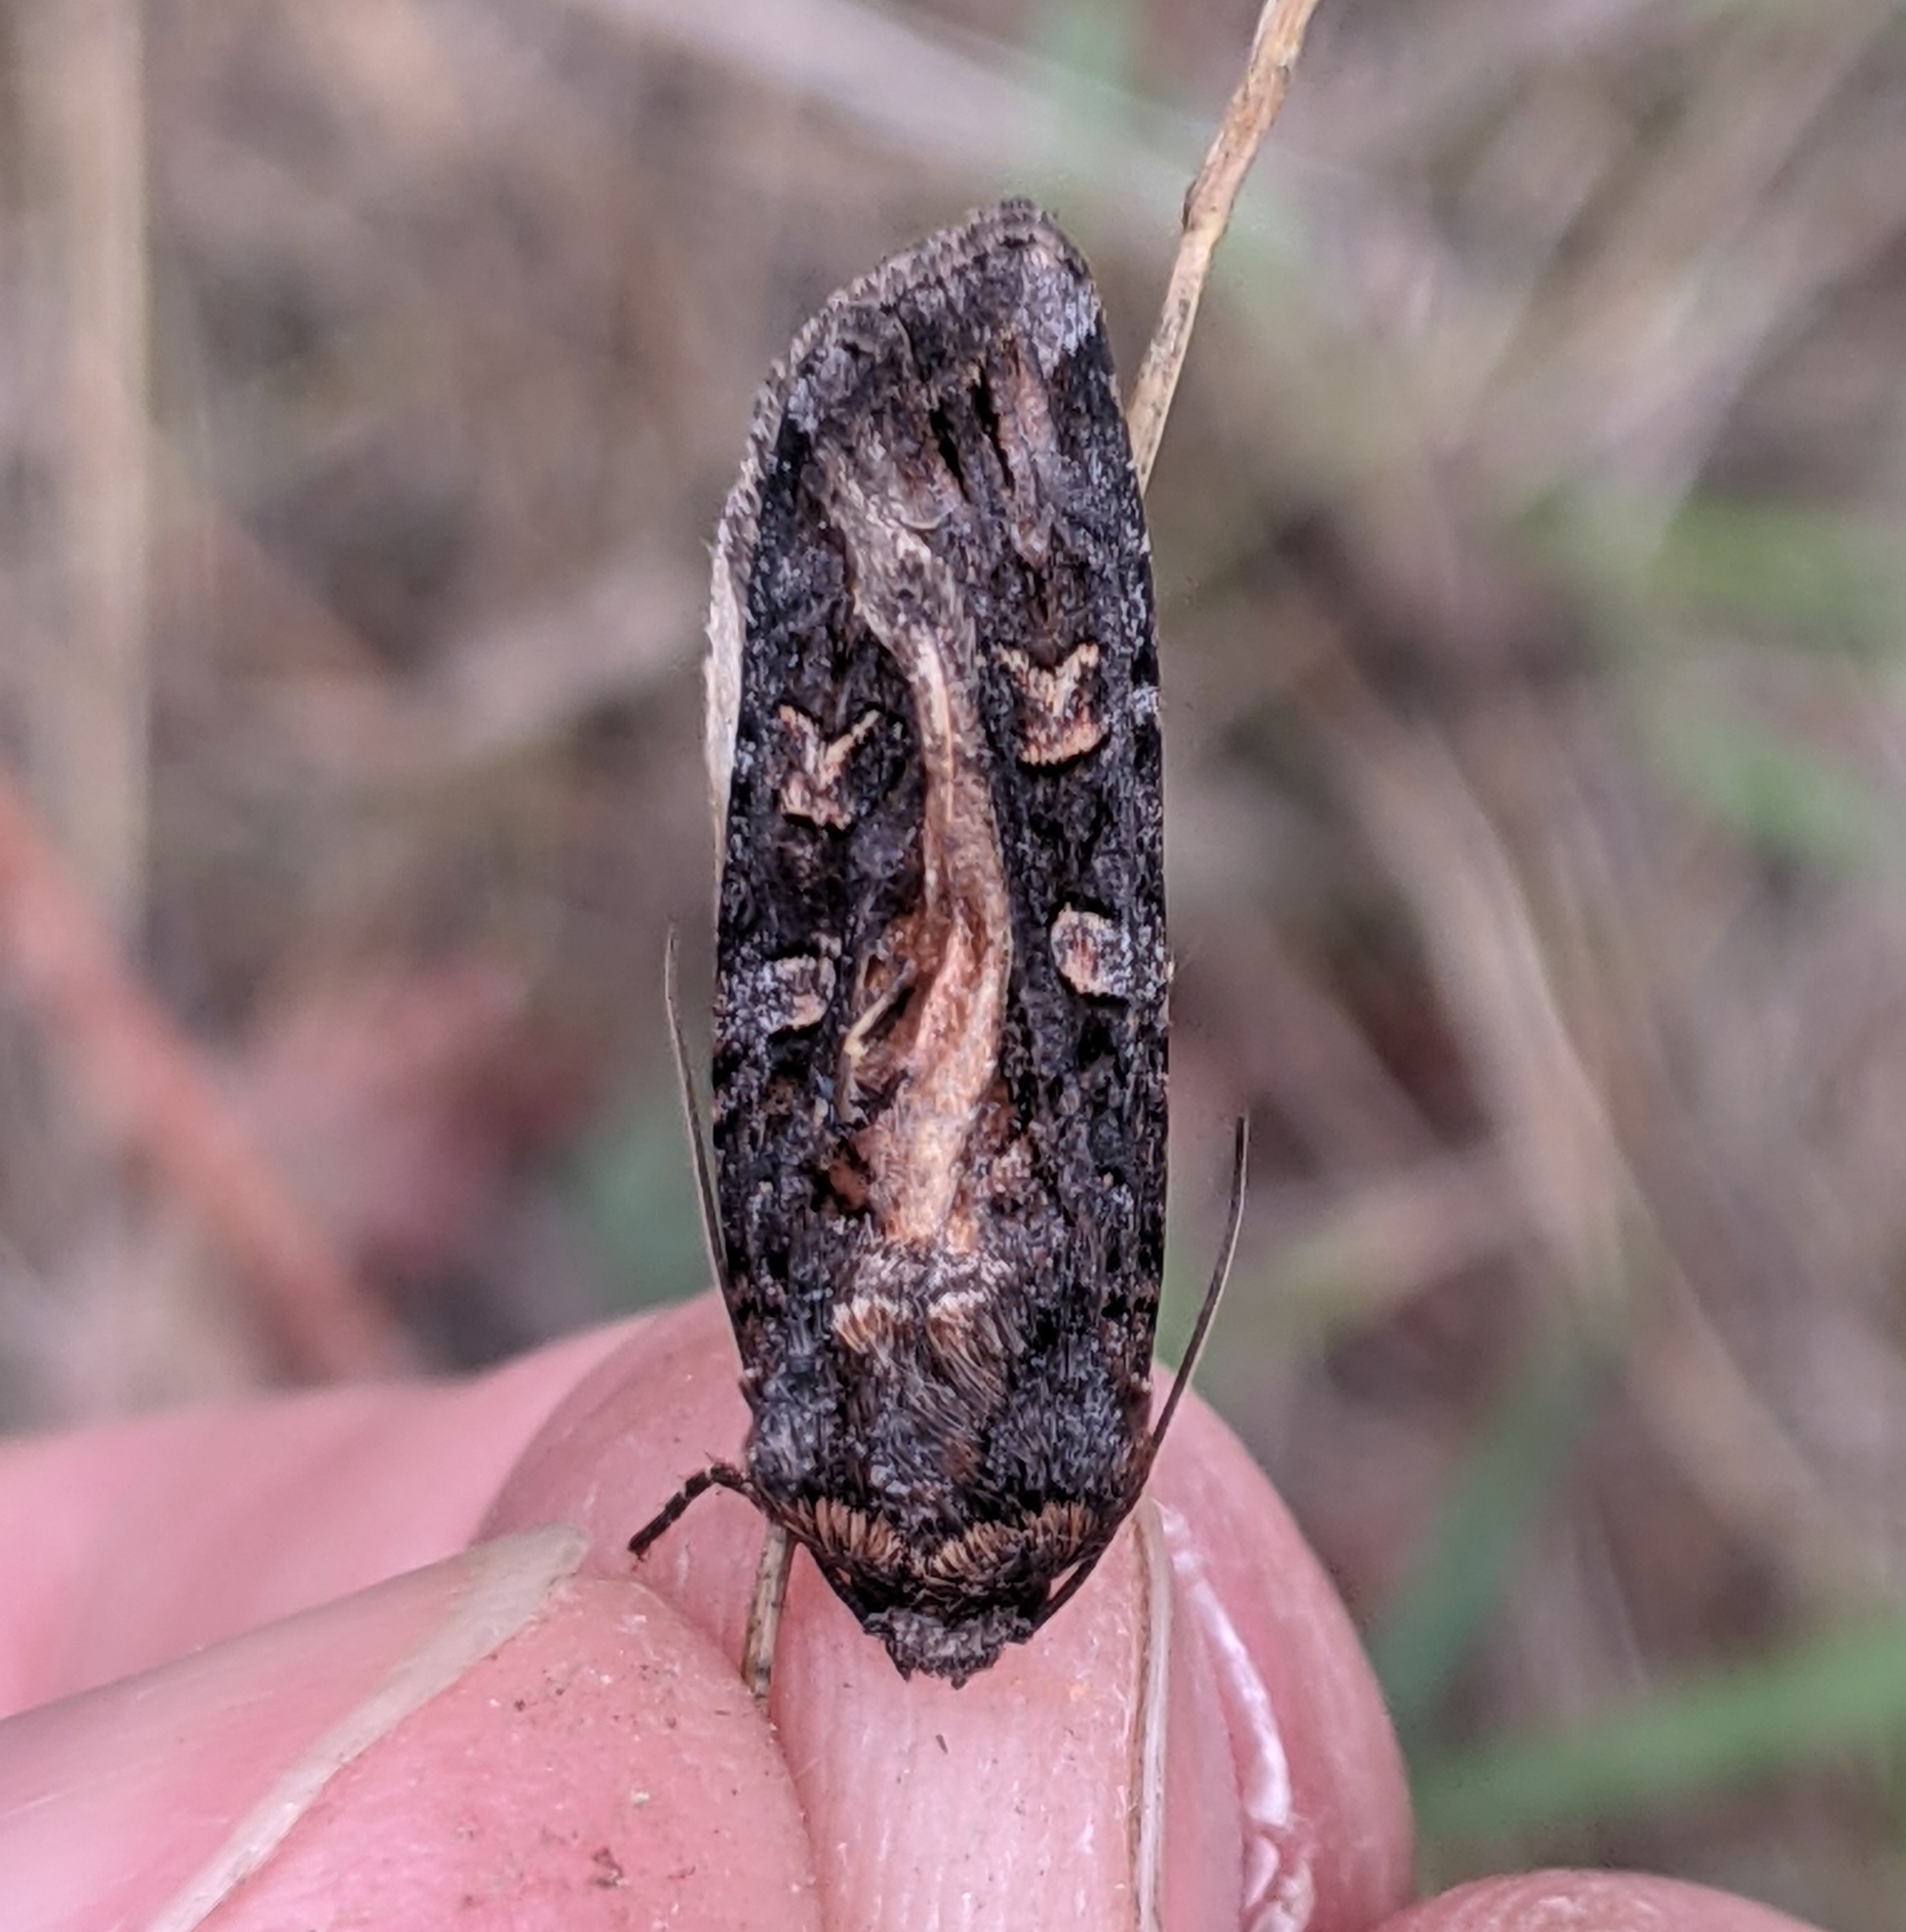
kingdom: Animalia
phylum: Arthropoda
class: Insecta
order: Lepidoptera
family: Noctuidae
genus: Actebia
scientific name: Actebia fennica
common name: Eversmann's rustic
